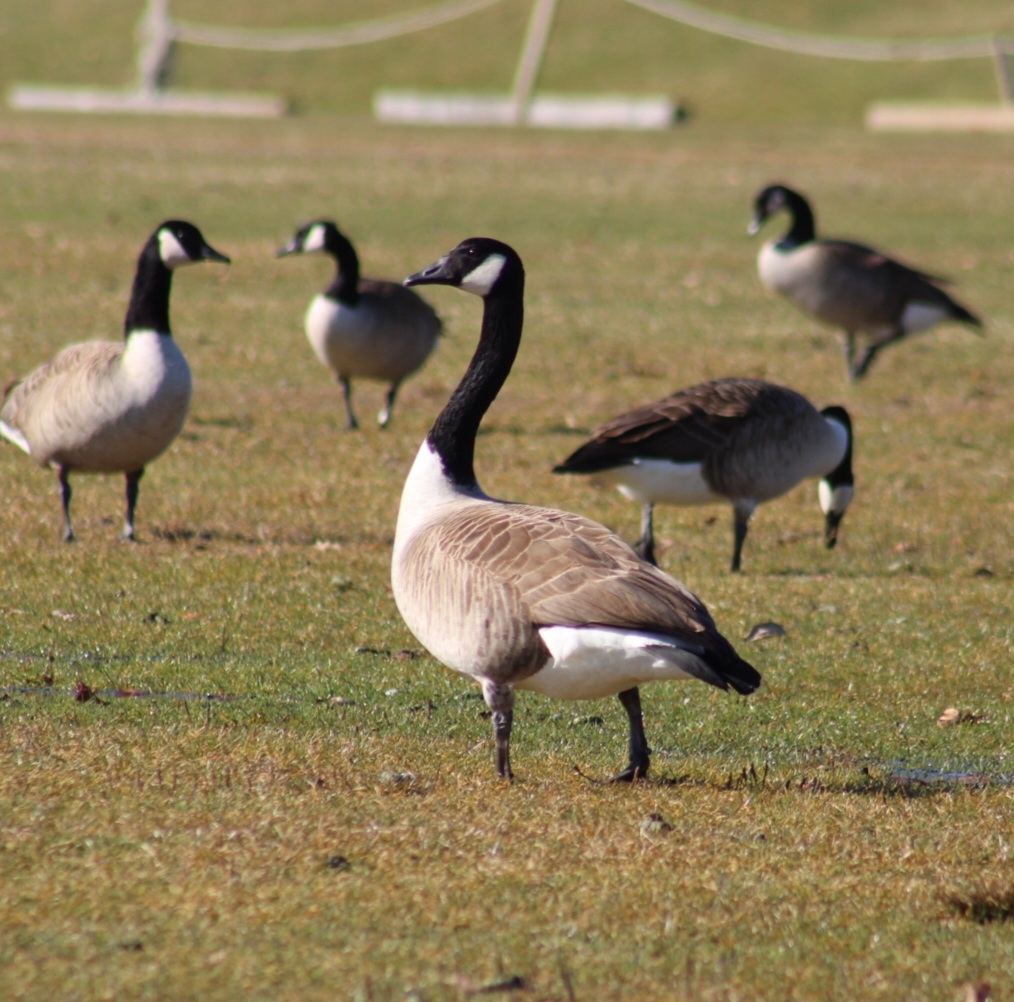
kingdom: Animalia
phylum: Chordata
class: Aves
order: Anseriformes
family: Anatidae
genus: Branta
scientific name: Branta canadensis
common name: Canada goose
